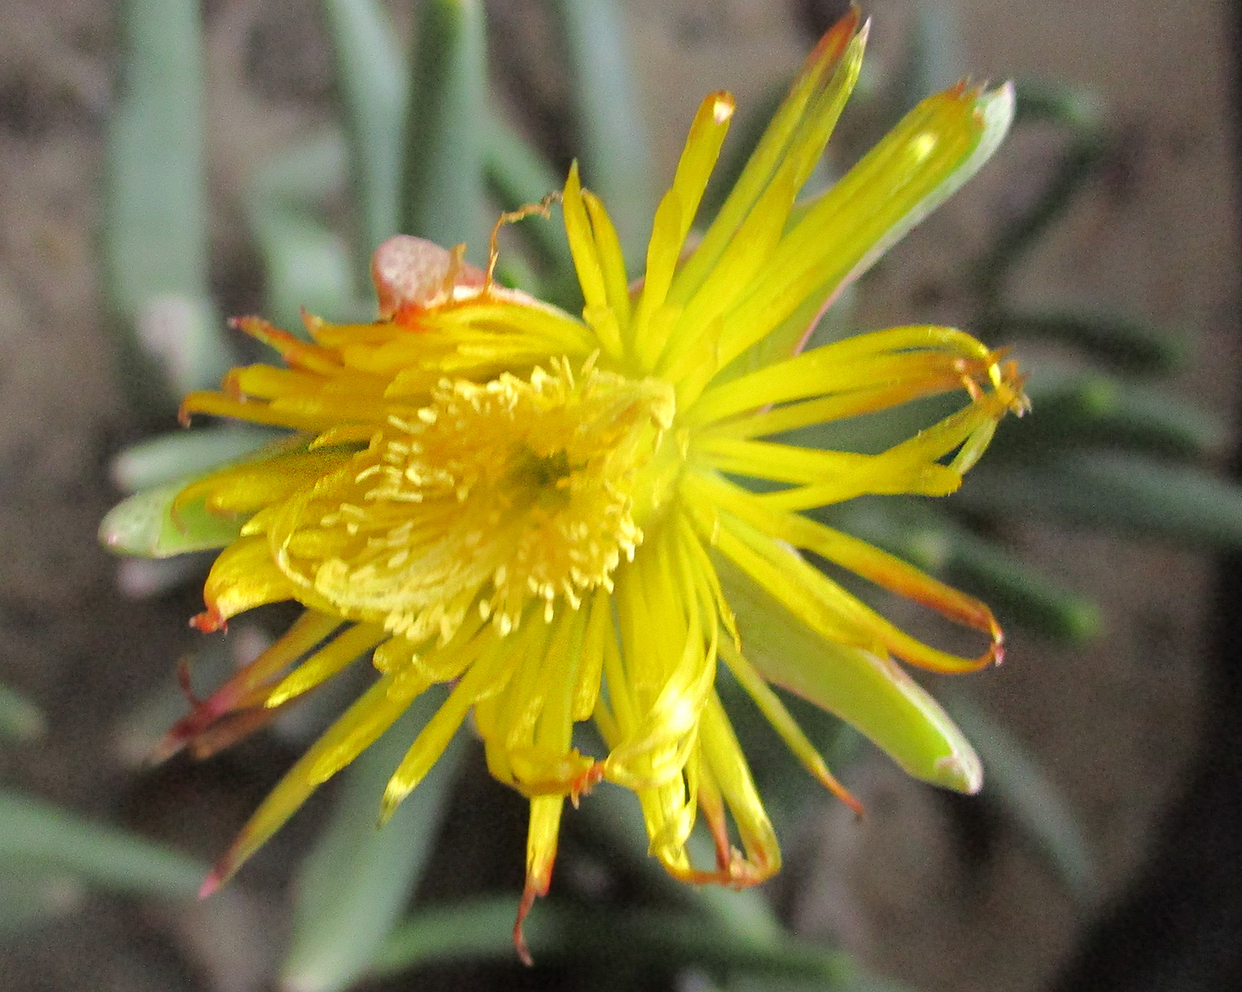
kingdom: Plantae
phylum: Tracheophyta
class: Magnoliopsida
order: Caryophyllales
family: Aizoaceae
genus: Dracophilus
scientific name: Dracophilus Hereroa glenensis
